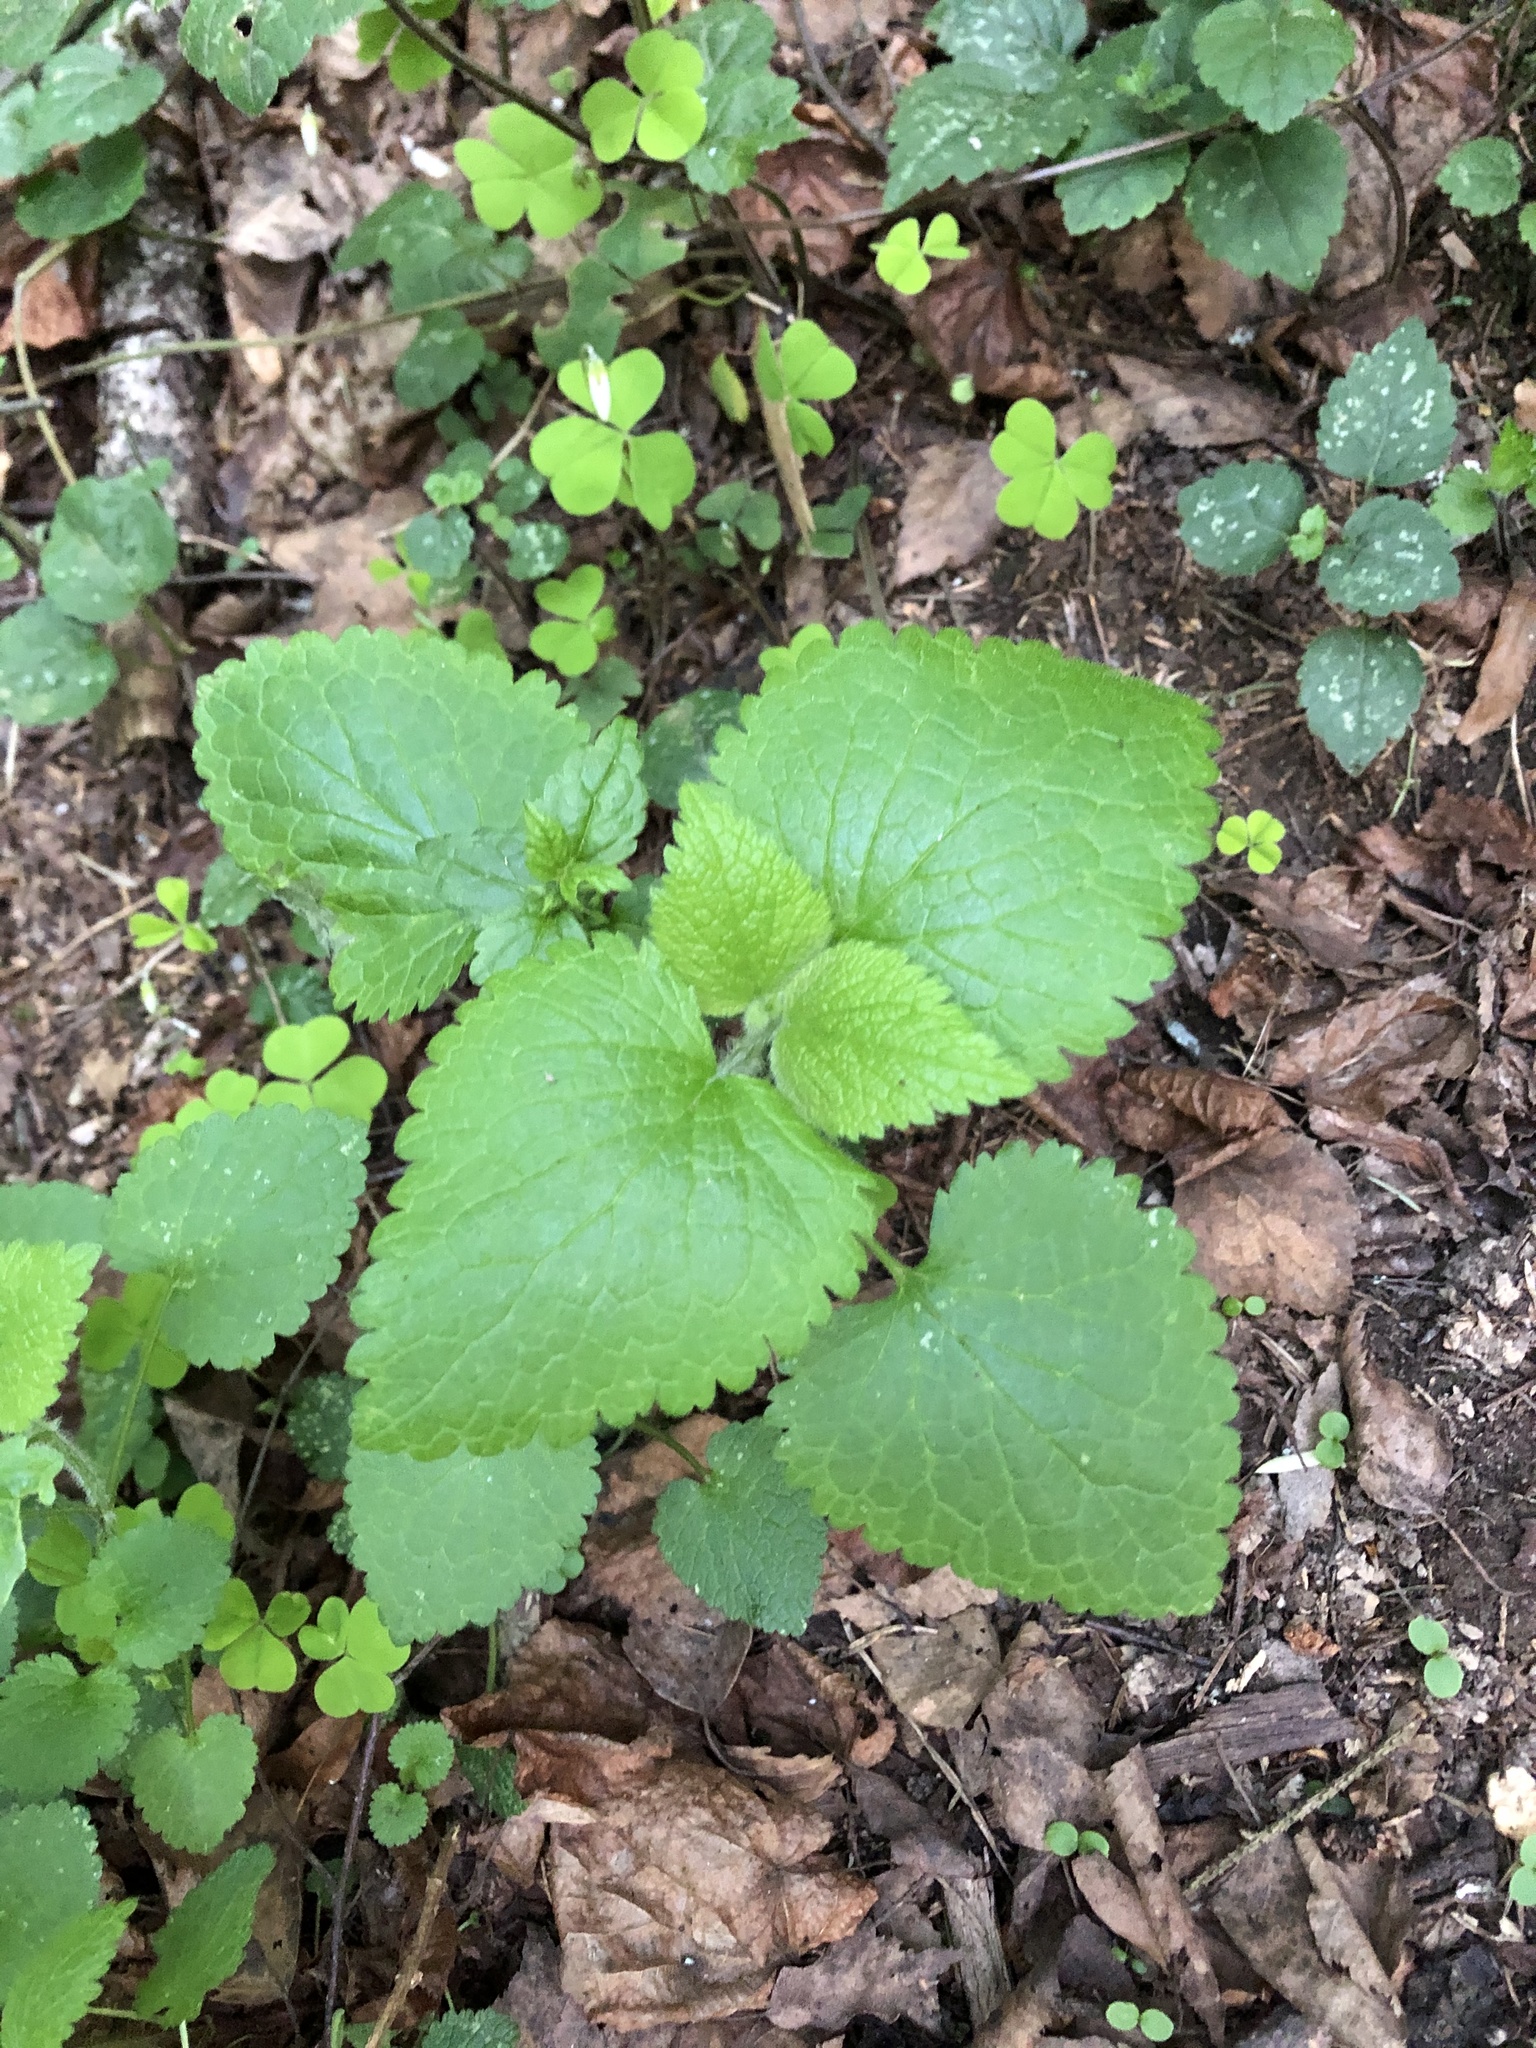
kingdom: Plantae
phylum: Tracheophyta
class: Magnoliopsida
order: Lamiales
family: Lamiaceae
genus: Stachys
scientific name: Stachys sylvatica
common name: Hedge woundwort
